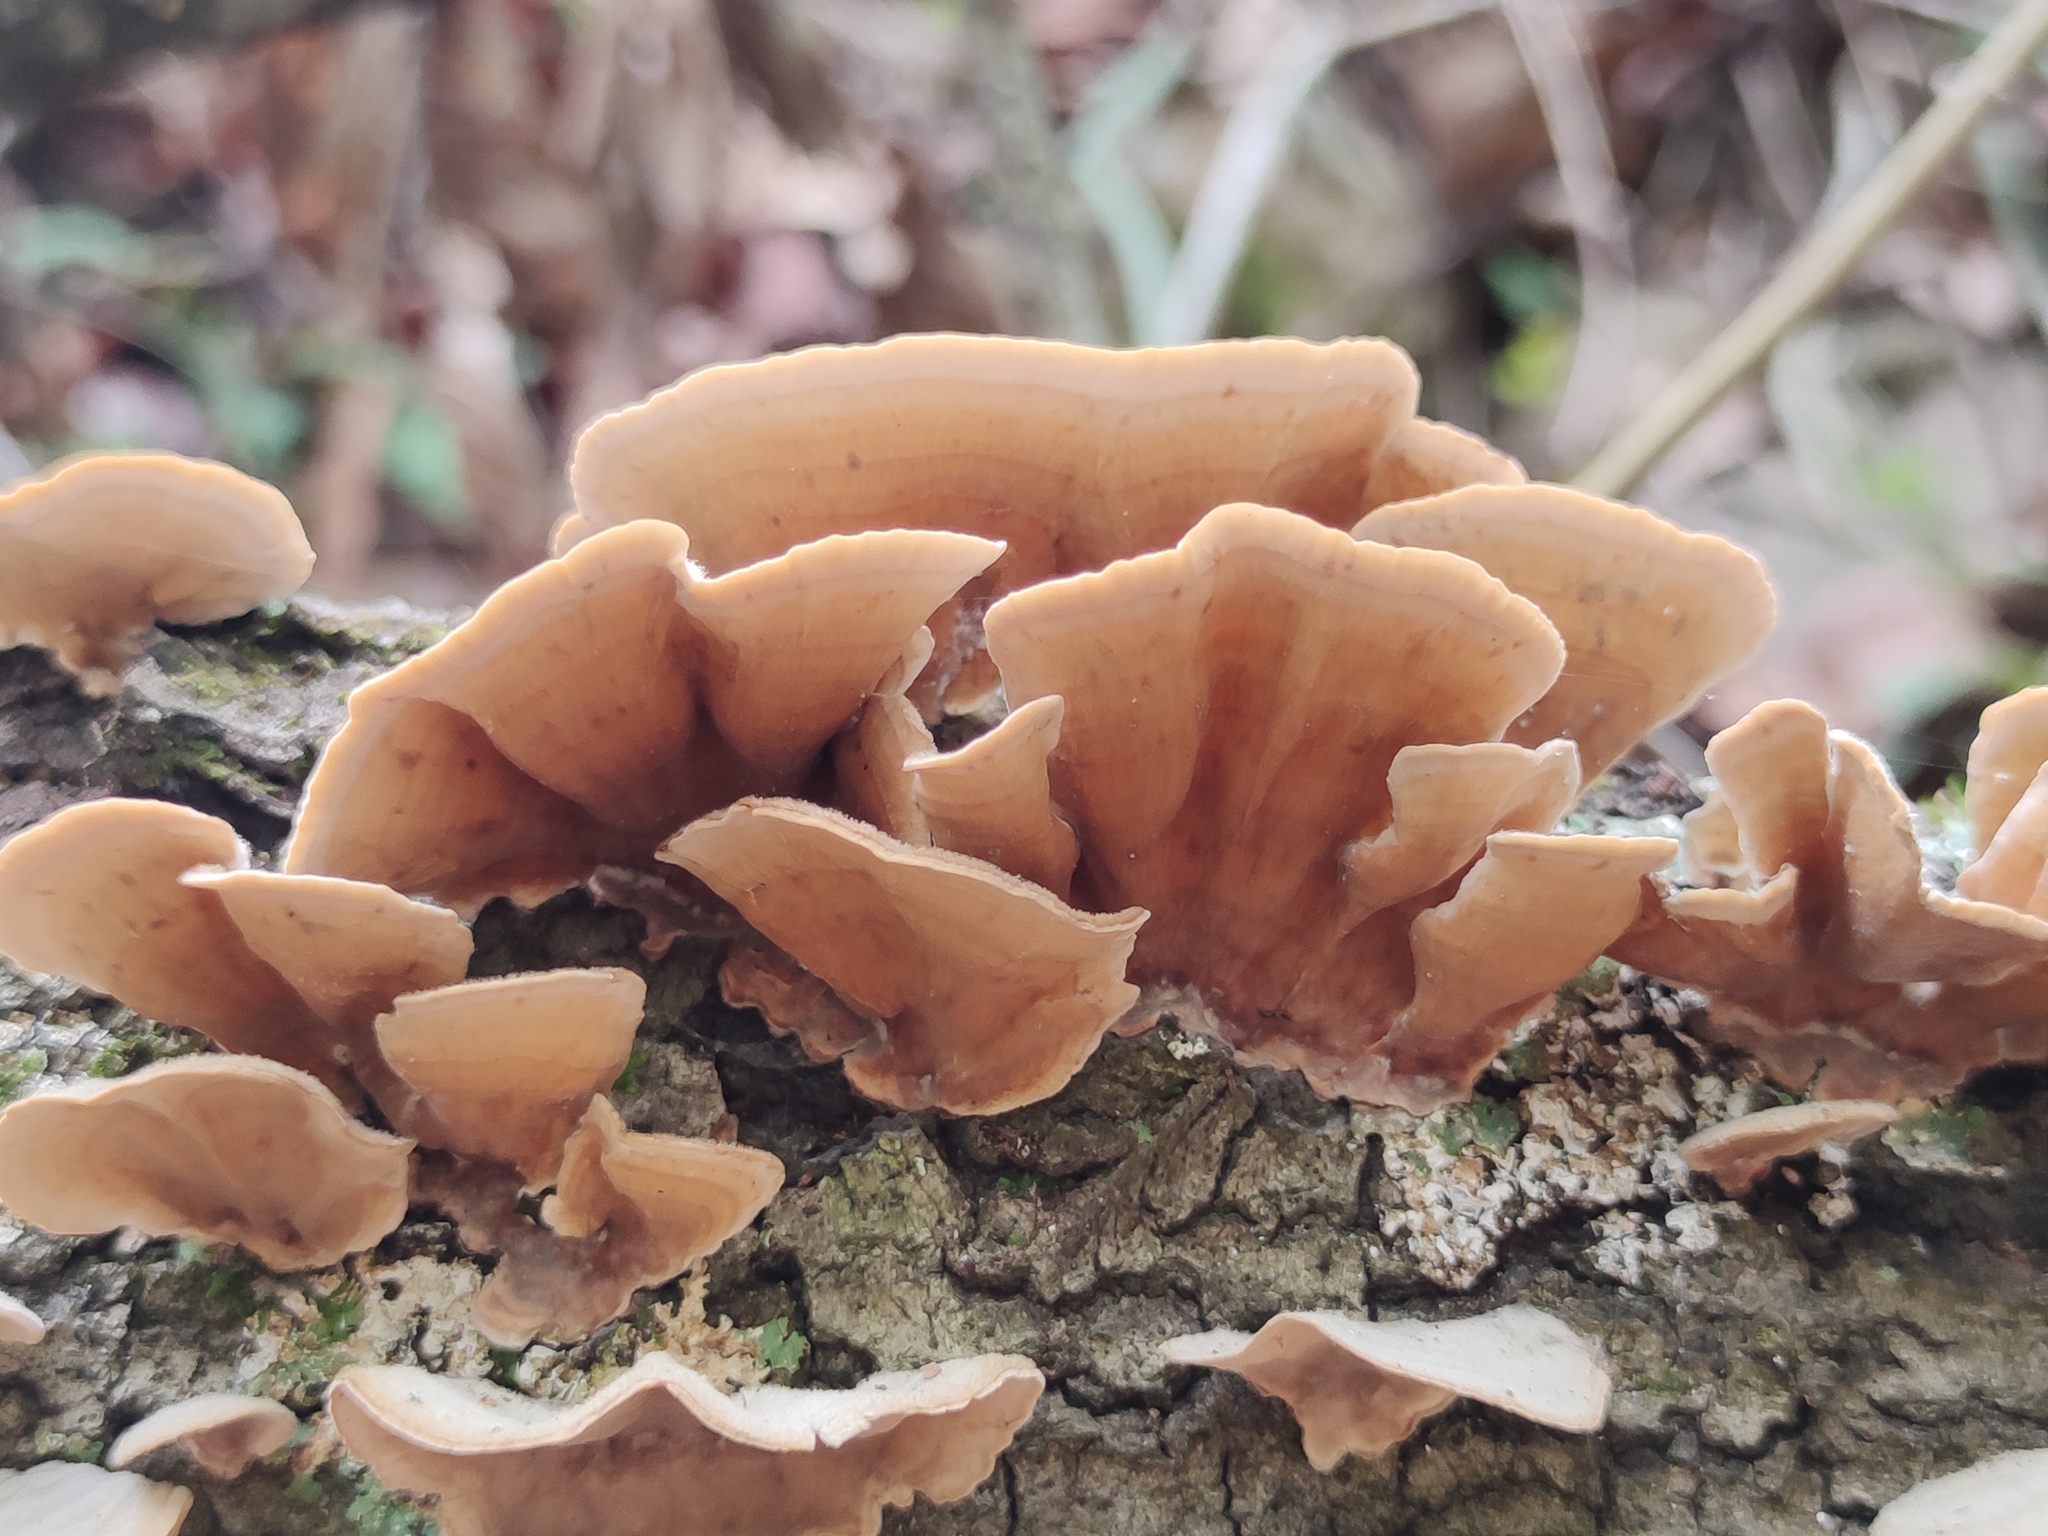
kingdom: Fungi
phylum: Basidiomycota
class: Agaricomycetes
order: Russulales
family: Stereaceae
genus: Stereum
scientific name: Stereum lobatum
